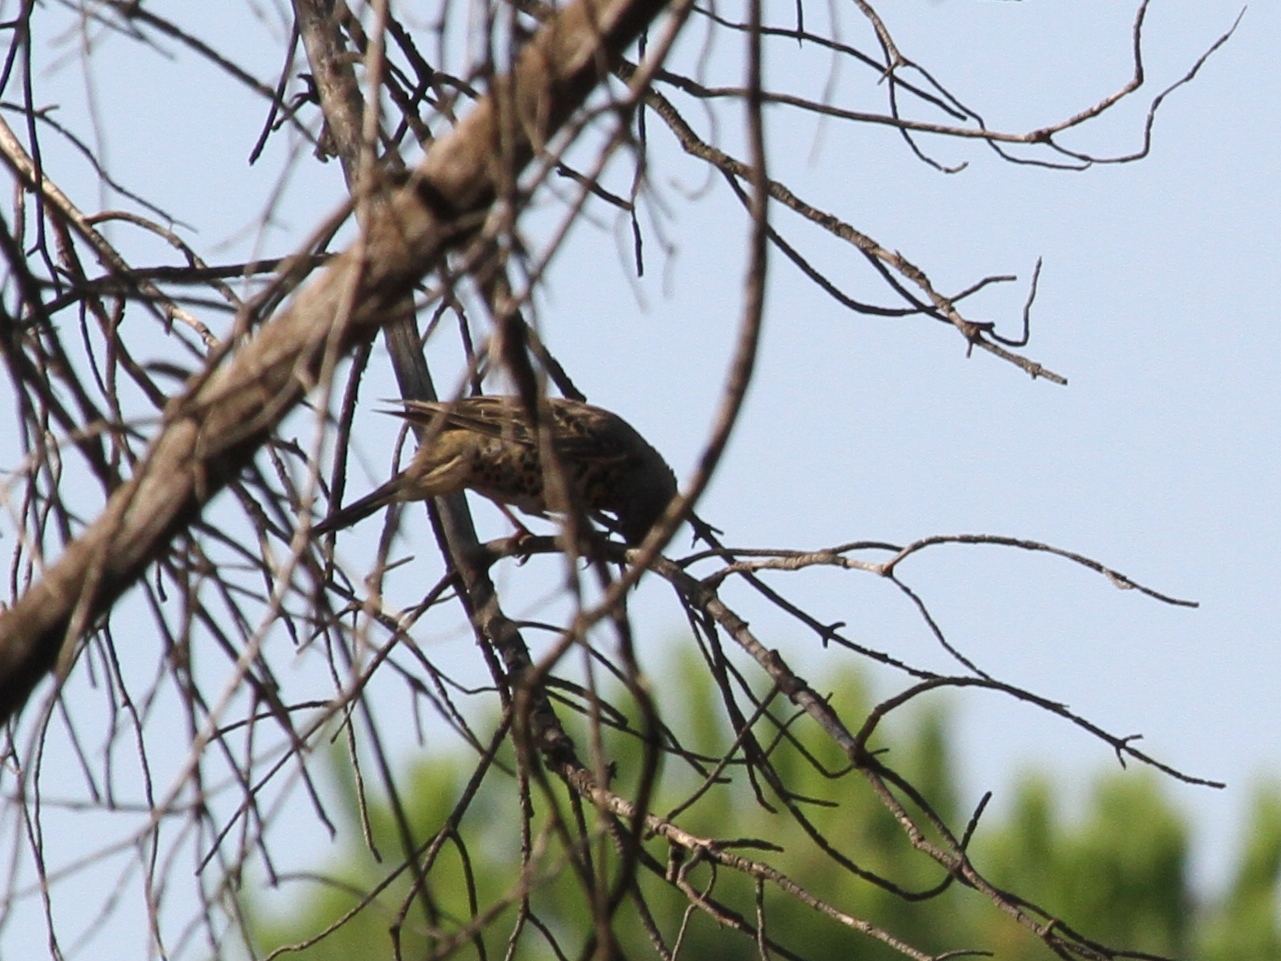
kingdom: Animalia
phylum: Chordata
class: Aves
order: Passeriformes
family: Turdidae
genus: Turdus
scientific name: Turdus viscivorus
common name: Mistle thrush
